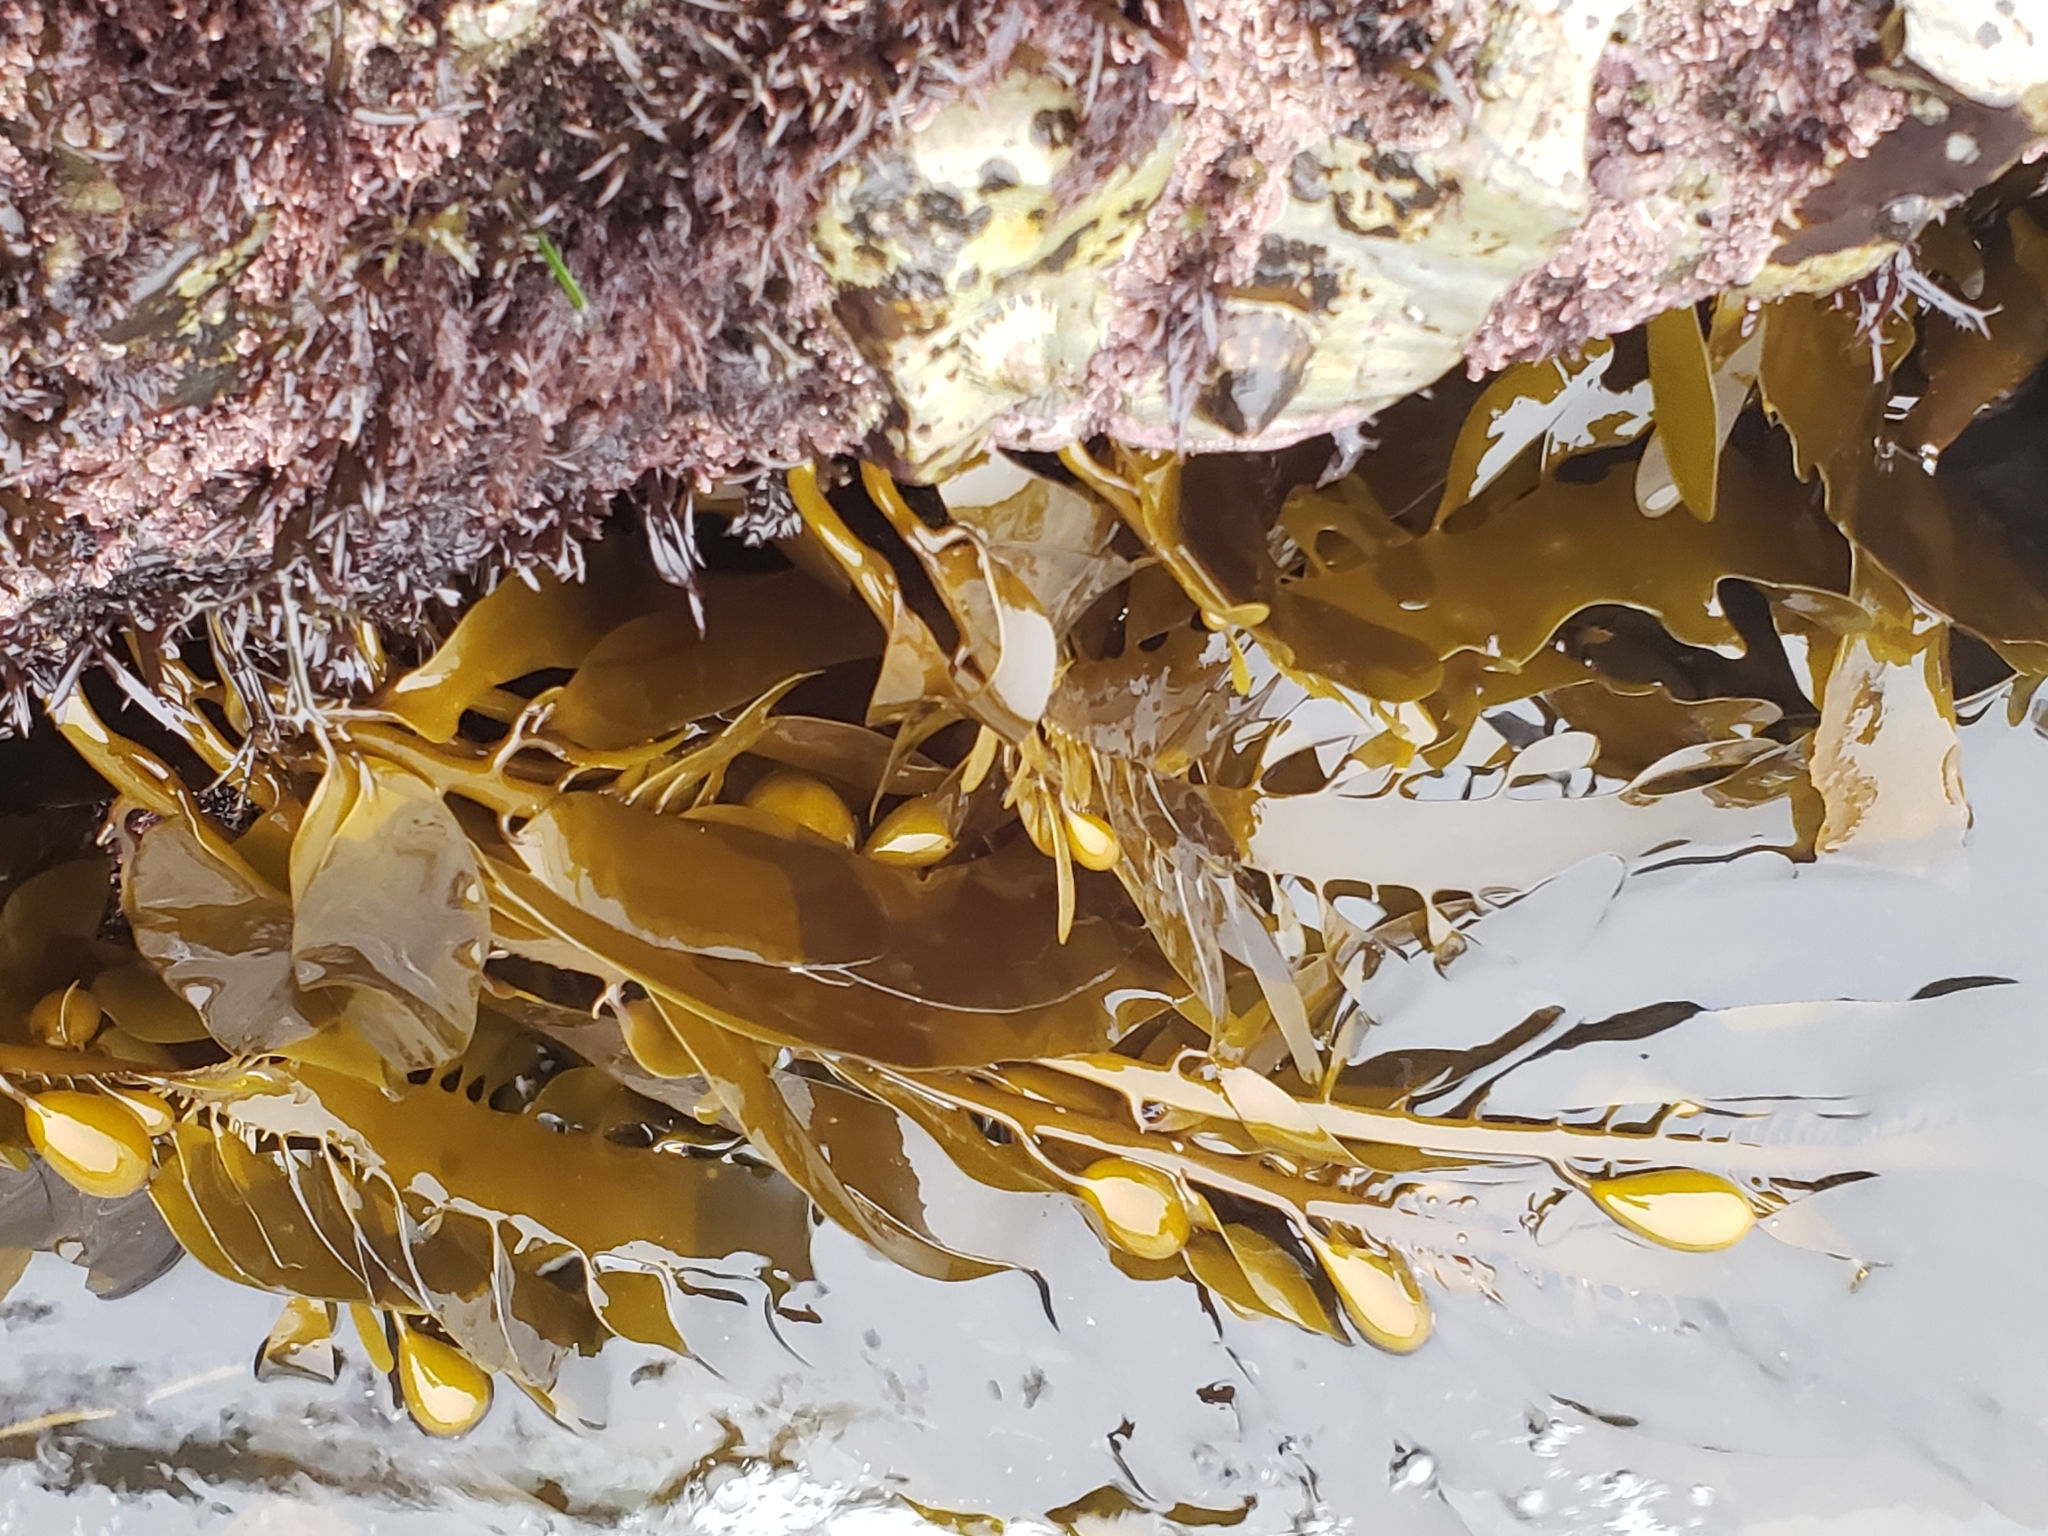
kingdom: Chromista
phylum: Ochrophyta
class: Phaeophyceae
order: Laminariales
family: Lessoniaceae
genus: Egregia
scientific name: Egregia menziesii
